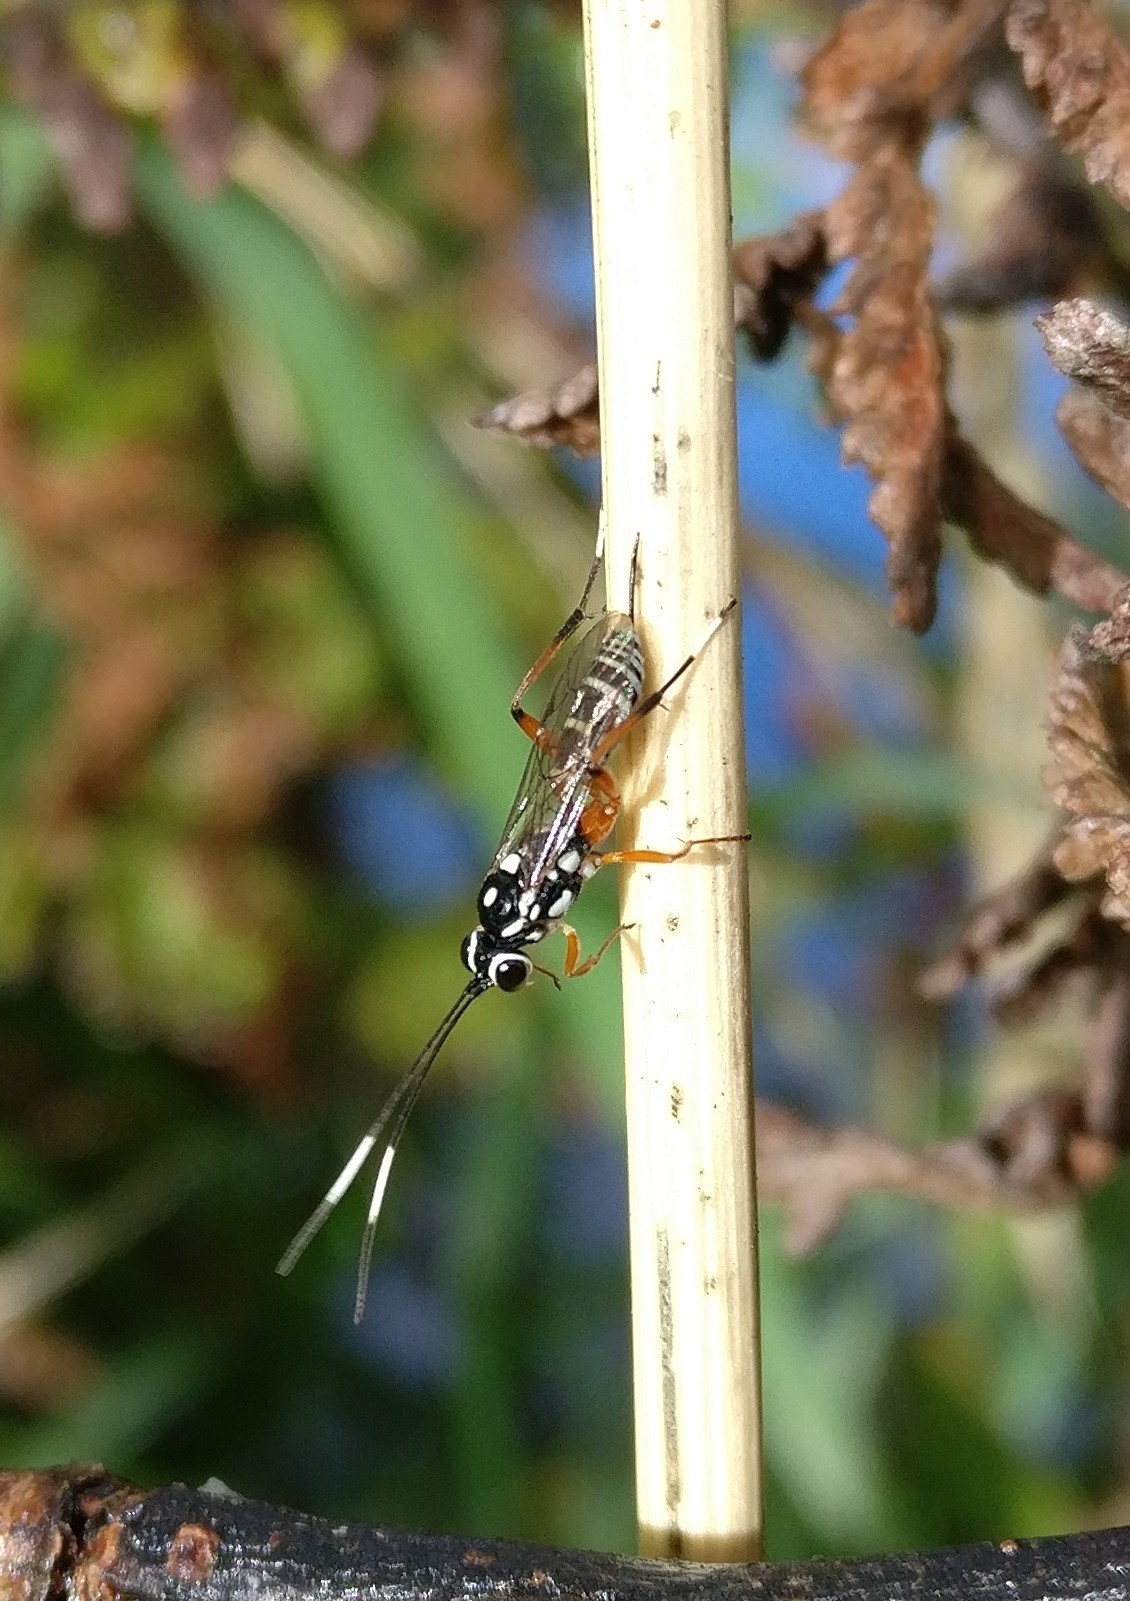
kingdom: Animalia
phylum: Arthropoda
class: Insecta
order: Hymenoptera
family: Ichneumonidae
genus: Glabridorsum
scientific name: Glabridorsum stokesii
